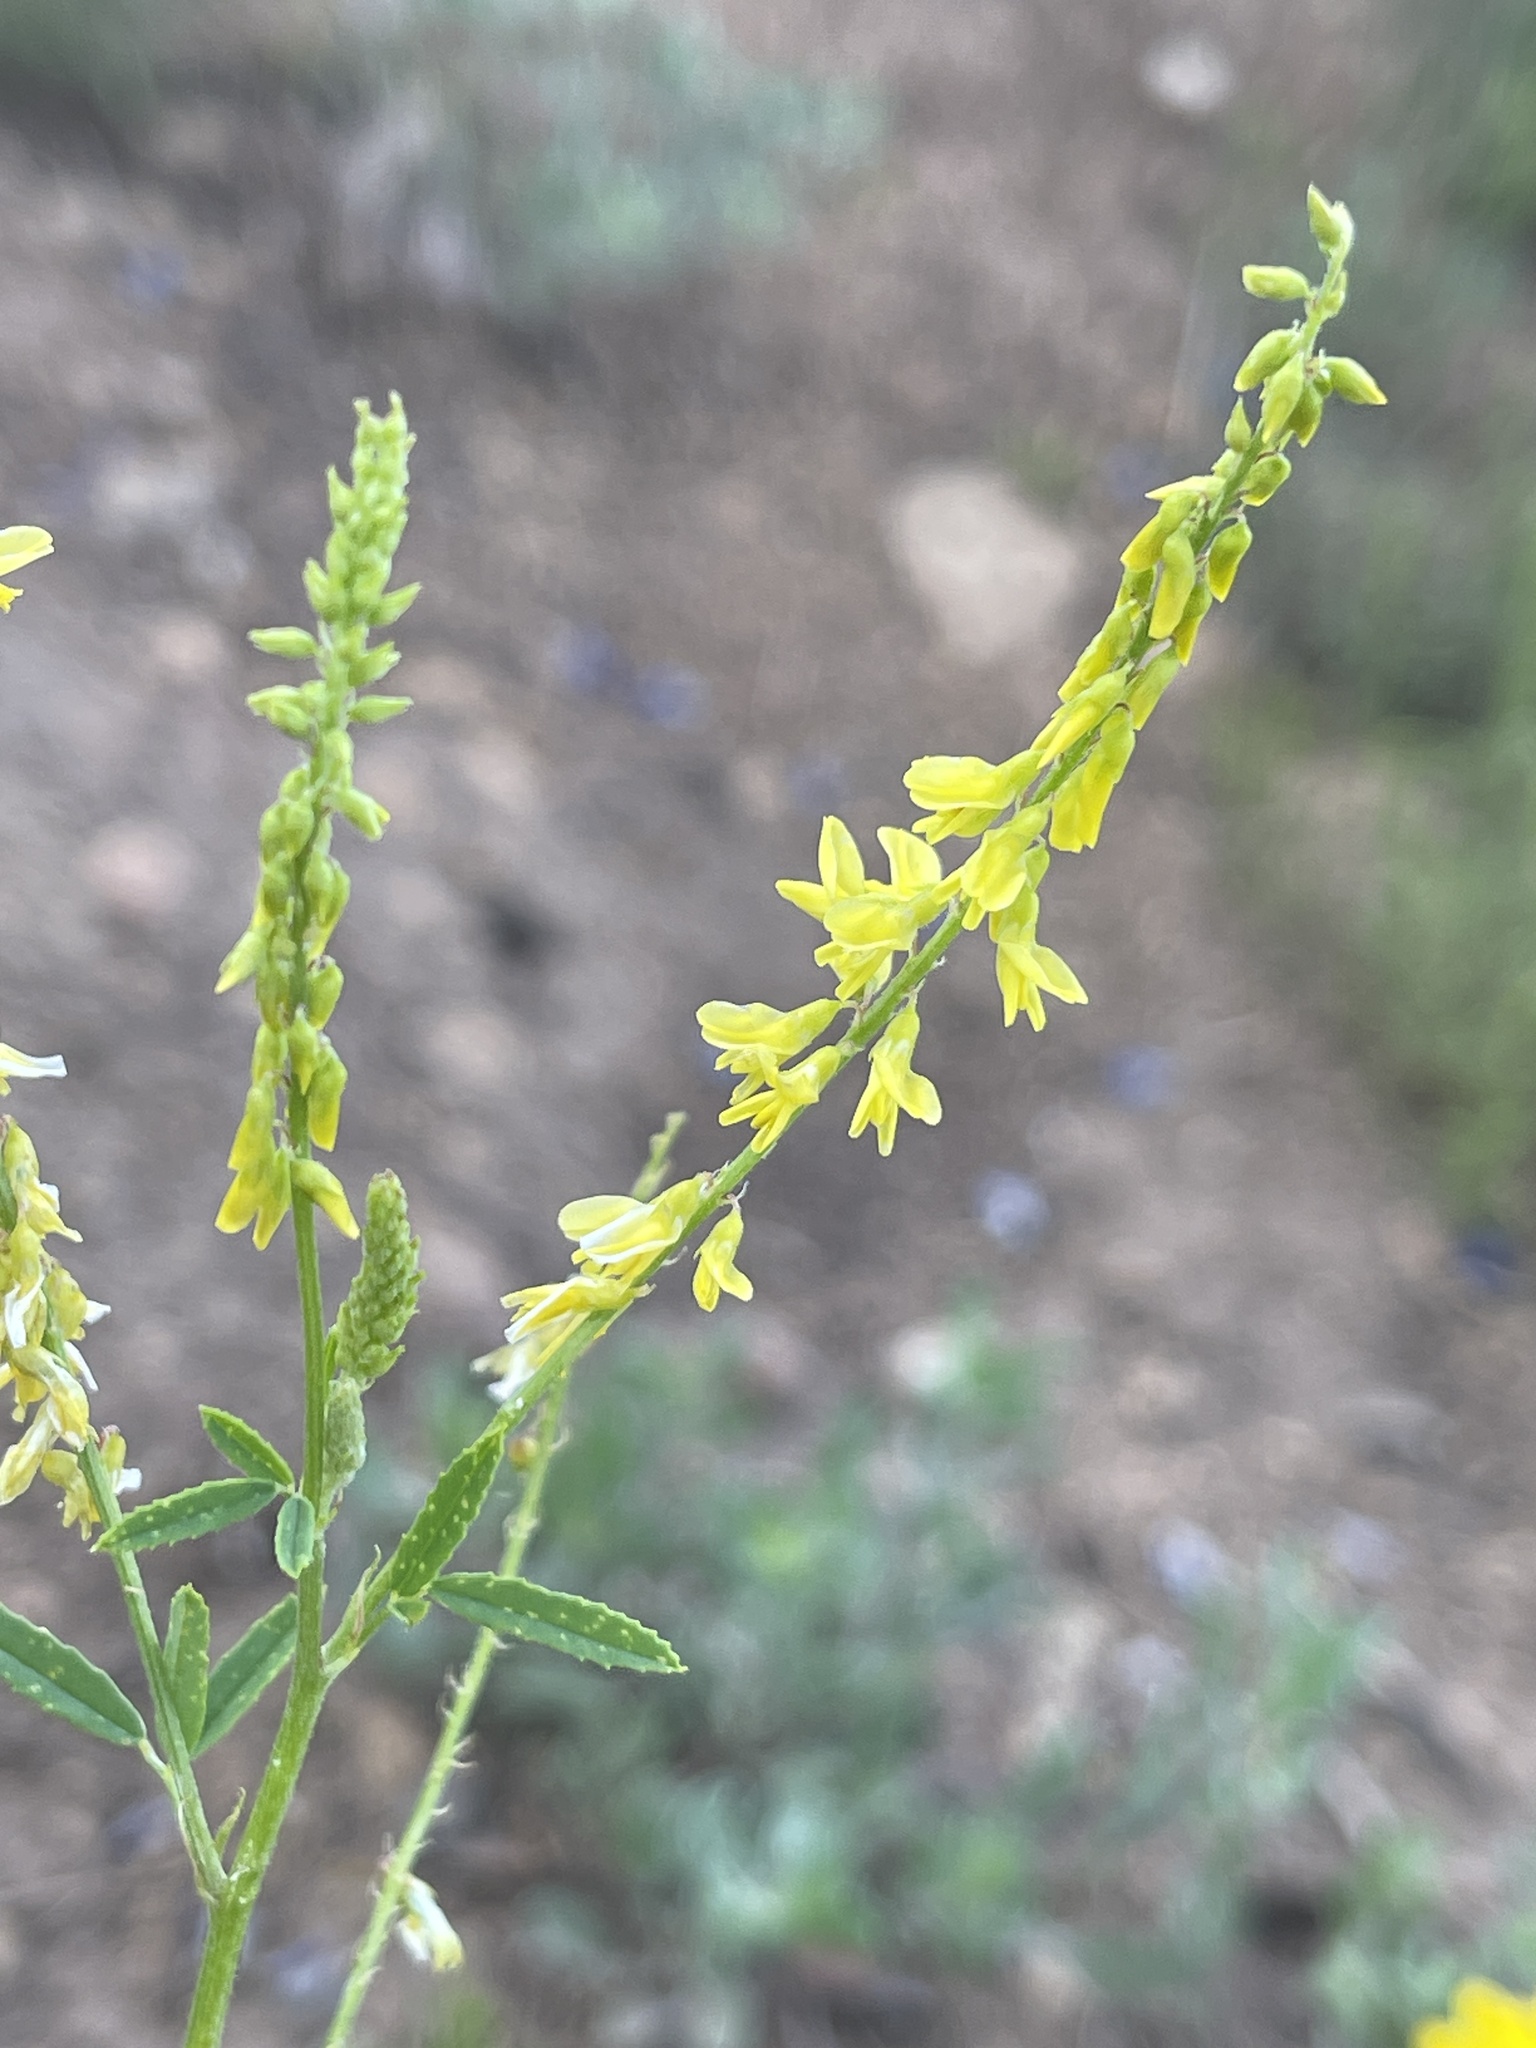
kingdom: Plantae
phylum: Tracheophyta
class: Magnoliopsida
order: Fabales
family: Fabaceae
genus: Melilotus
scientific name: Melilotus officinalis
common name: Sweetclover
